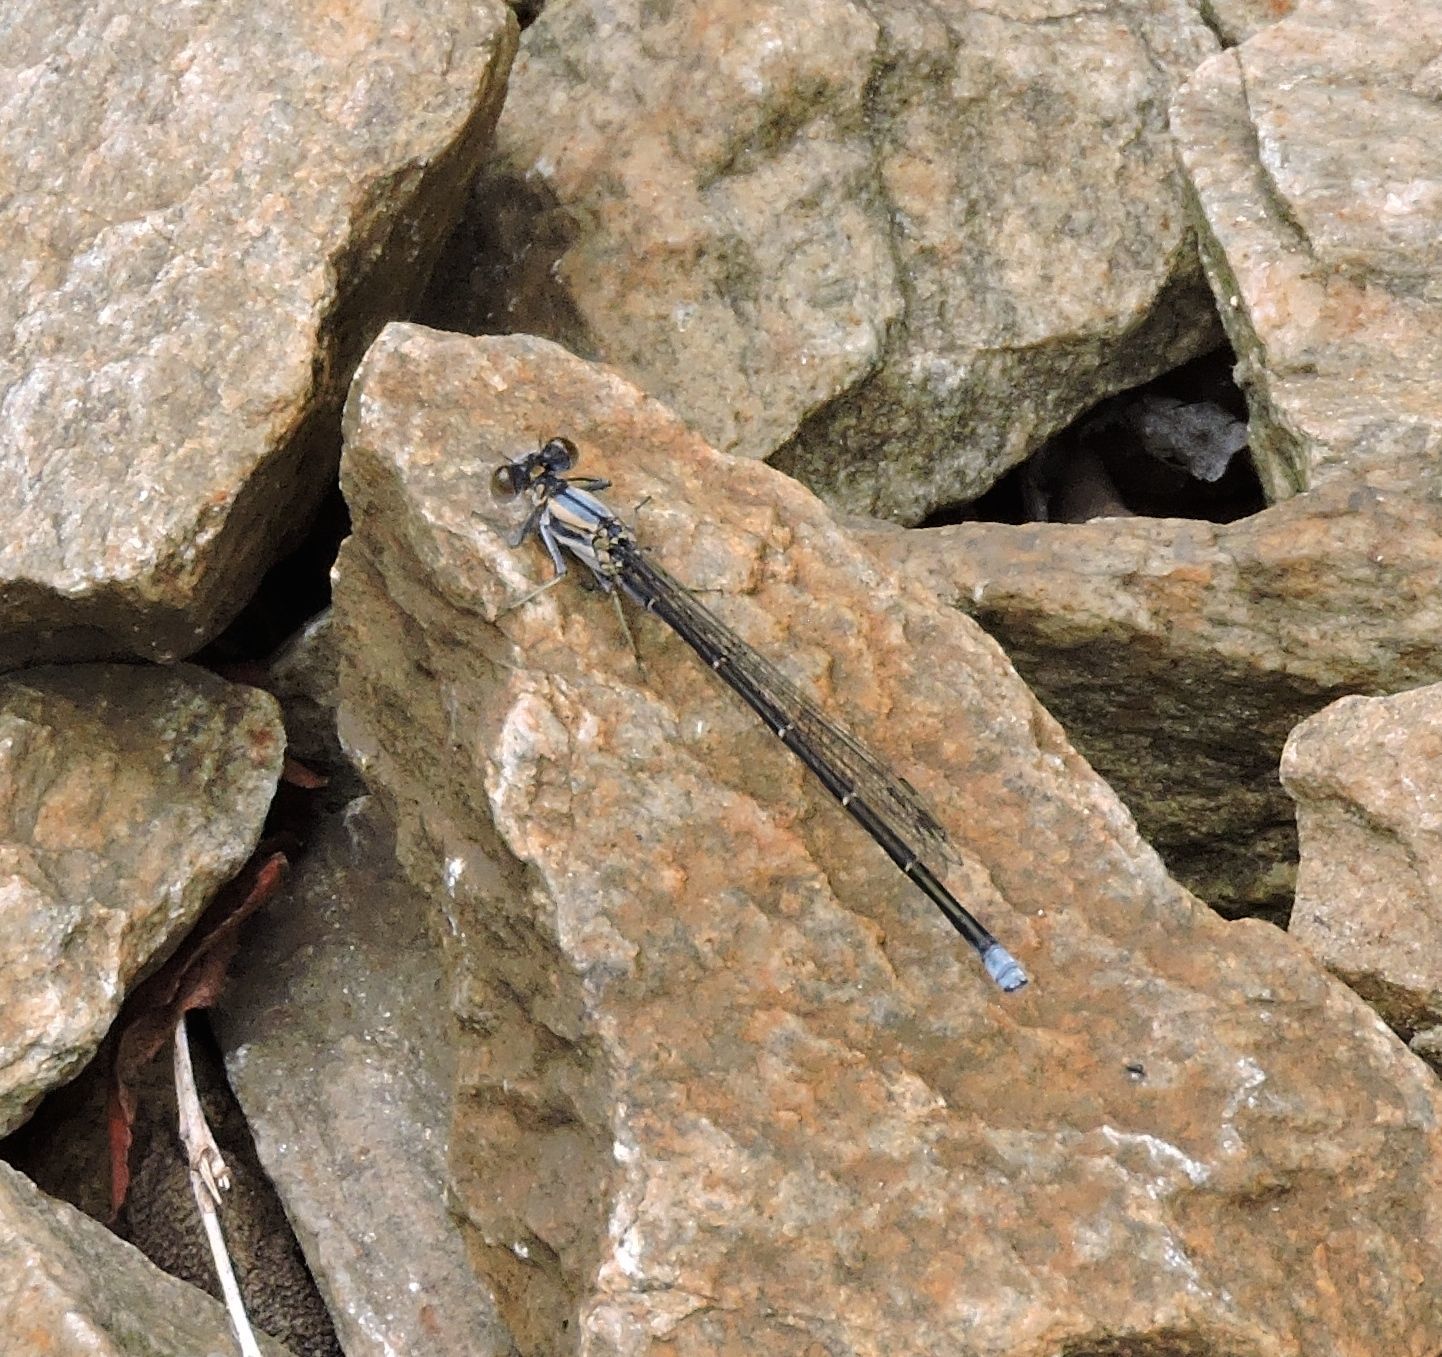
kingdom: Animalia
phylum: Arthropoda
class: Insecta
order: Odonata
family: Coenagrionidae
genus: Argia
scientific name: Argia moesta
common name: Powdered dancer
